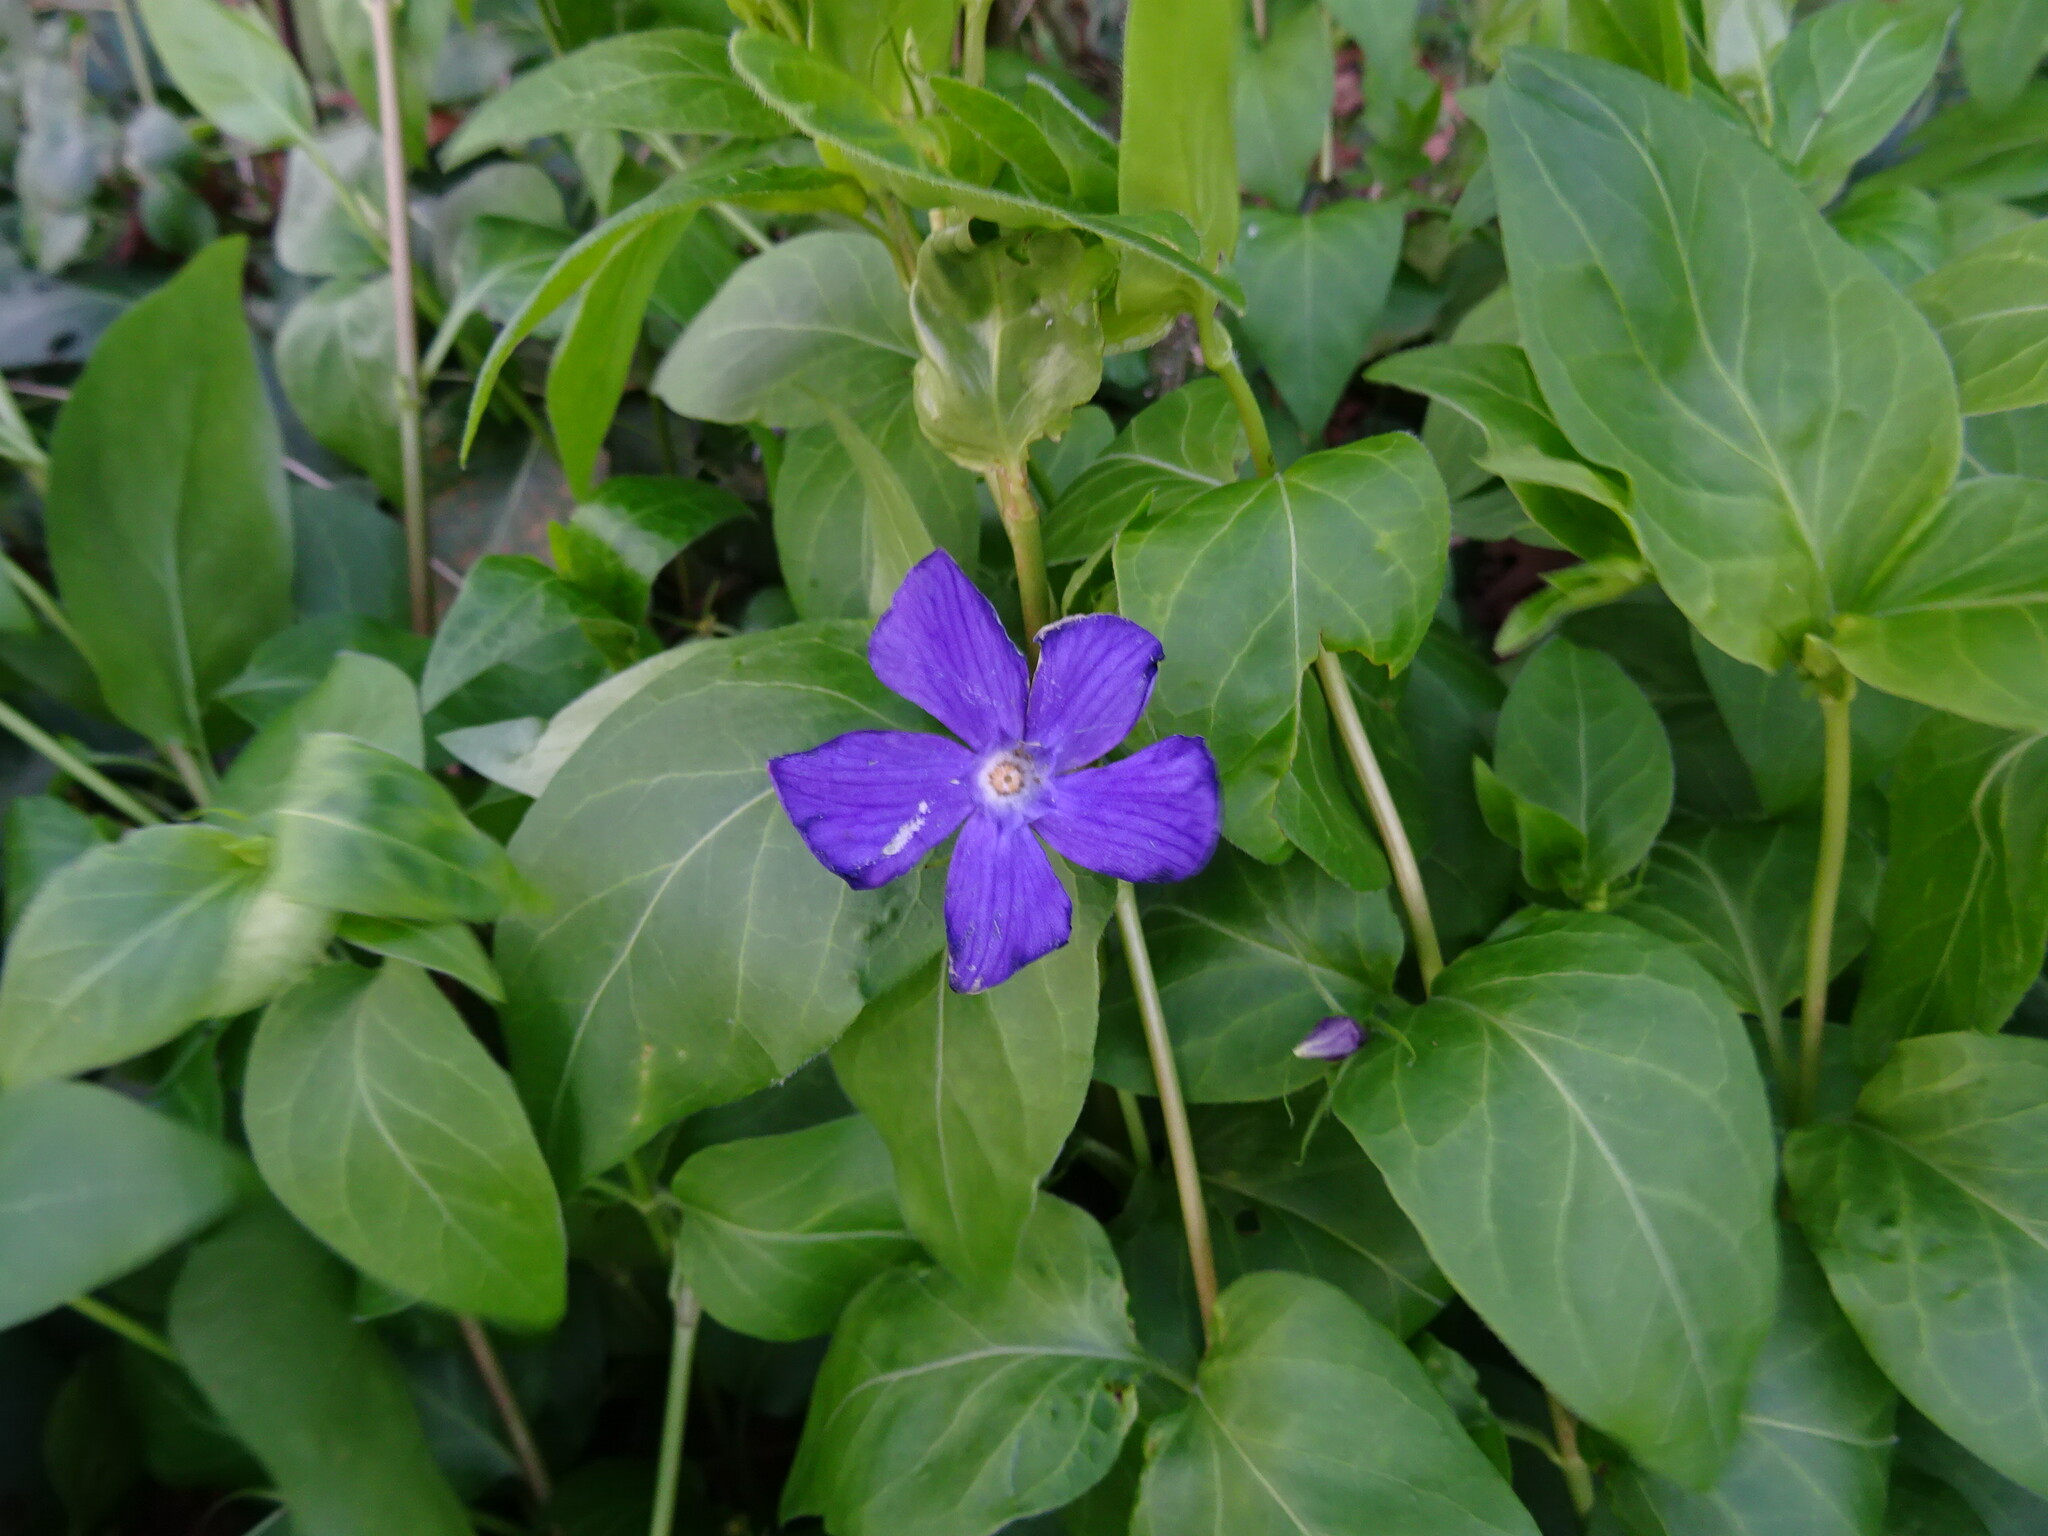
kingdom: Plantae
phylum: Tracheophyta
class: Magnoliopsida
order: Gentianales
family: Apocynaceae
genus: Vinca
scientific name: Vinca major
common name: Greater periwinkle
